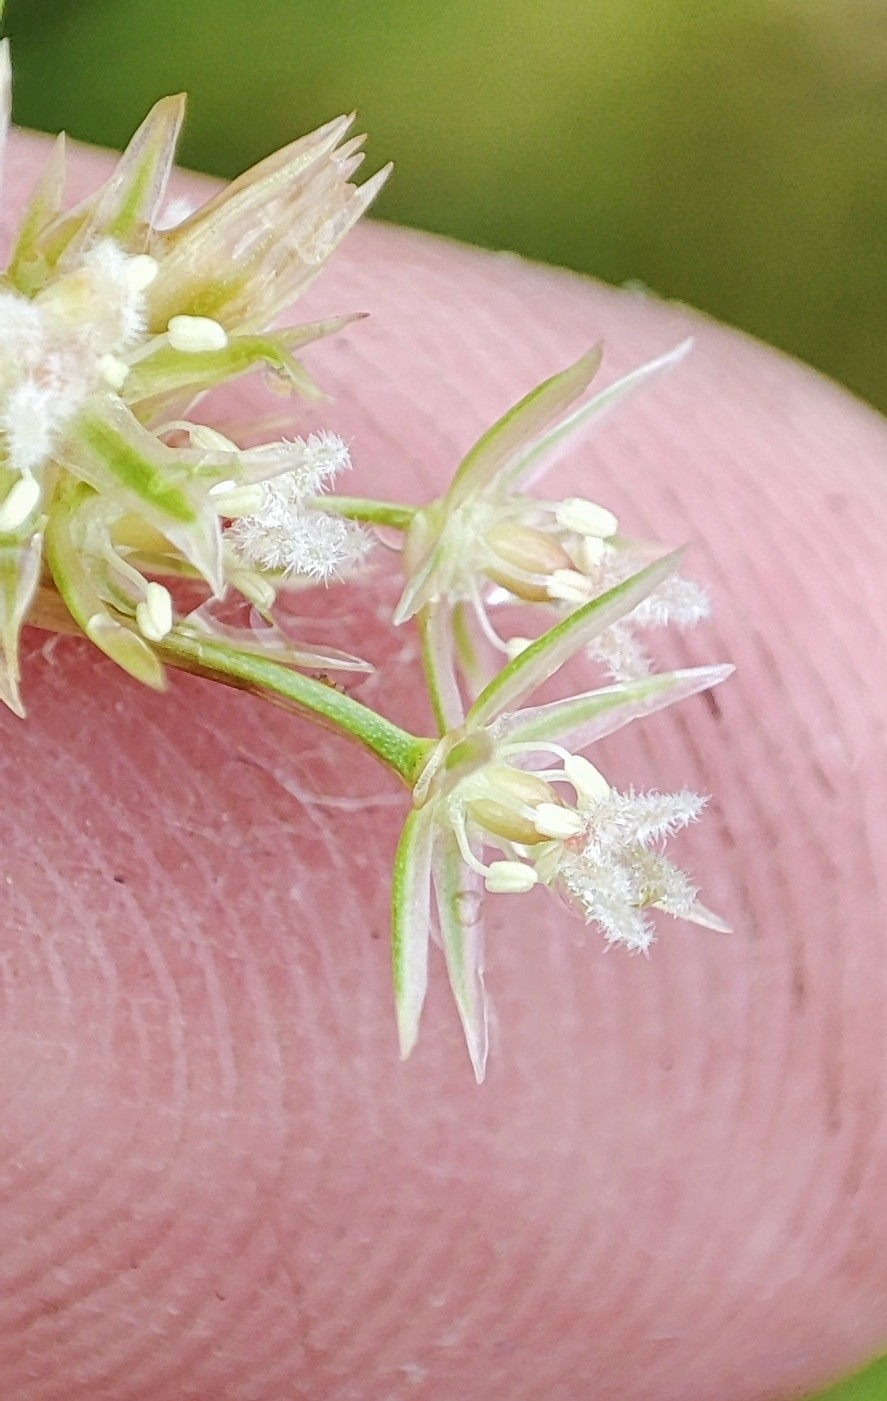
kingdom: Plantae
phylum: Tracheophyta
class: Liliopsida
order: Poales
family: Juncaceae
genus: Juncus
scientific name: Juncus filiformis
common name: Thread rush
